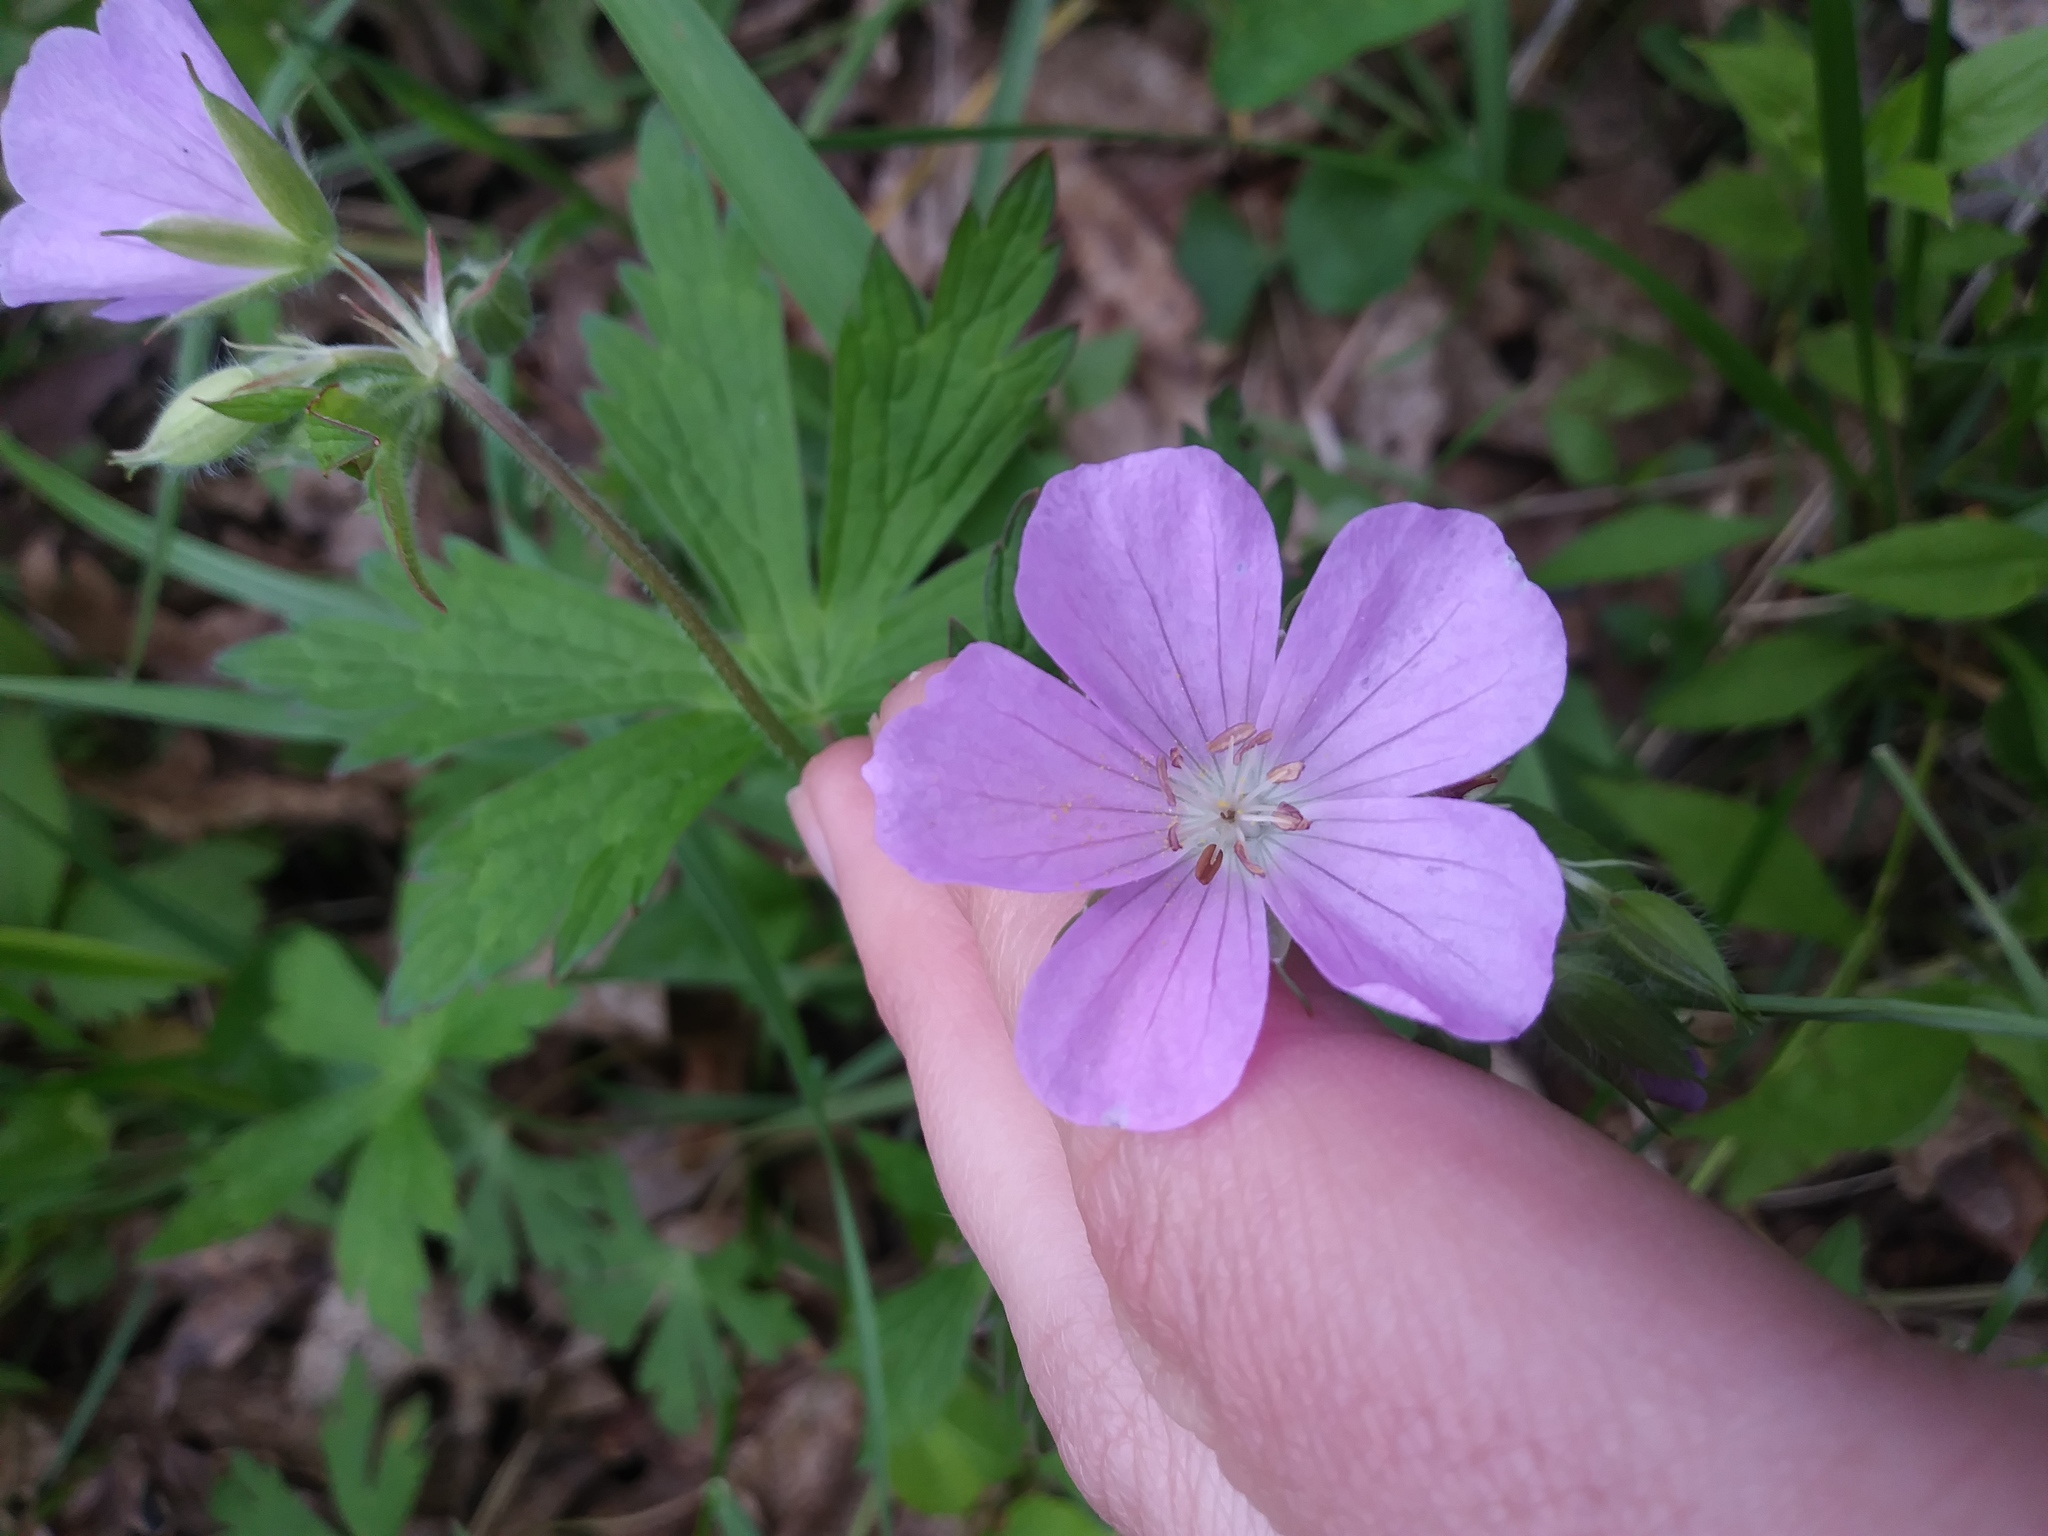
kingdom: Plantae
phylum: Tracheophyta
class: Magnoliopsida
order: Geraniales
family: Geraniaceae
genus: Geranium
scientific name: Geranium maculatum
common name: Spotted geranium
